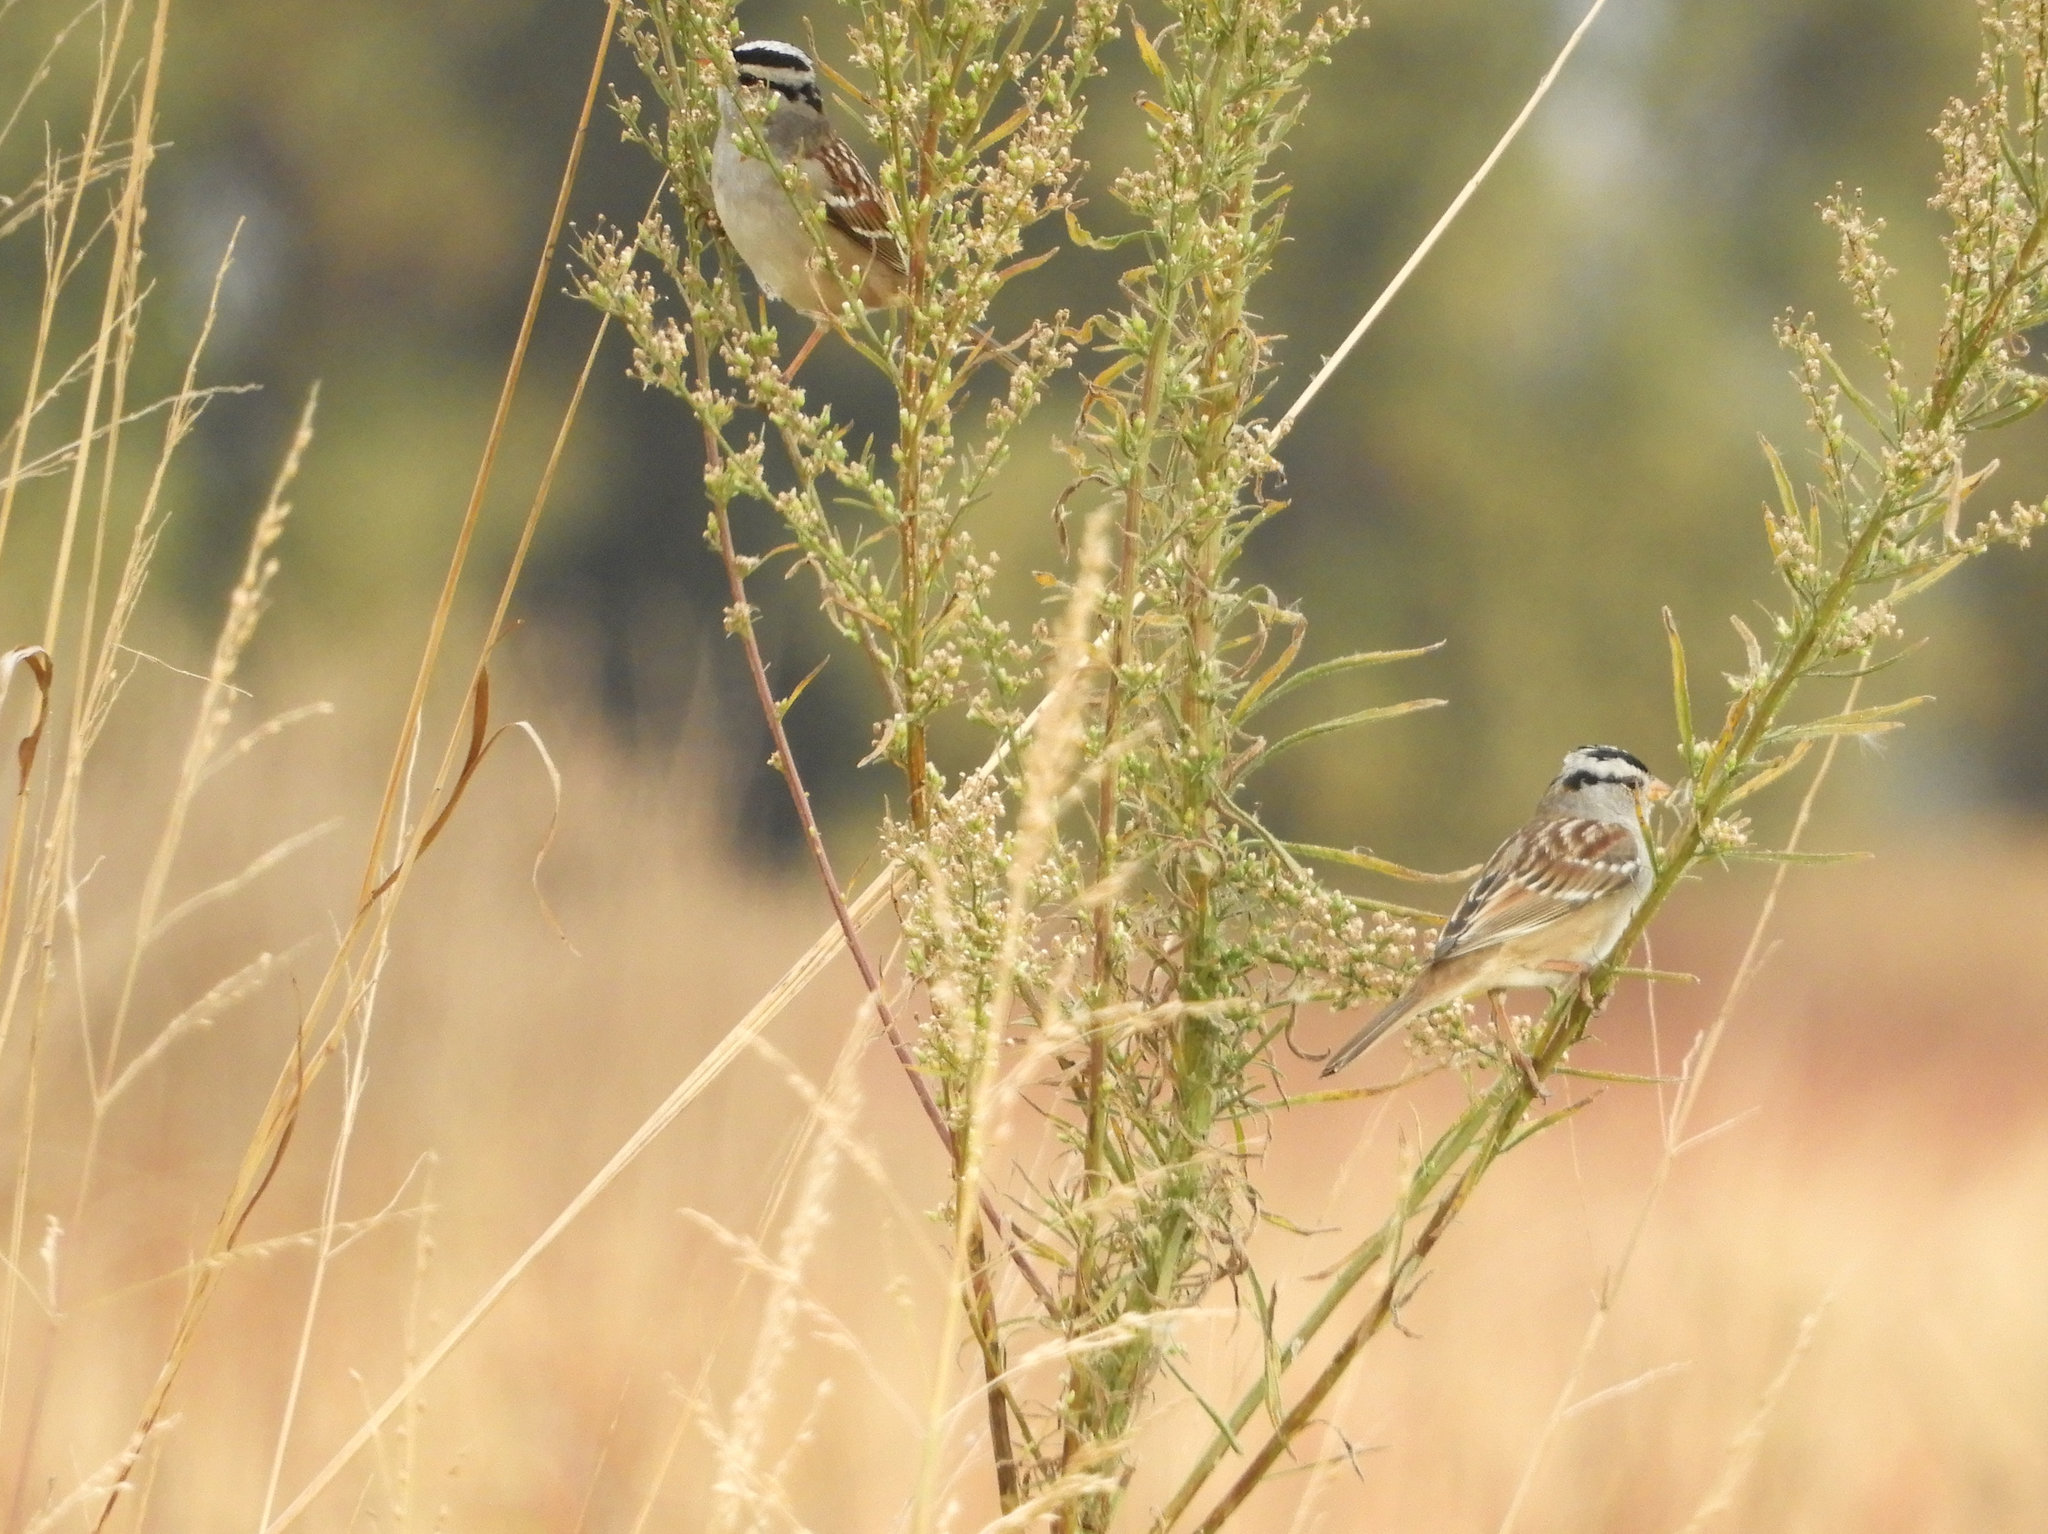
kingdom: Animalia
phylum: Chordata
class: Aves
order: Passeriformes
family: Passerellidae
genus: Zonotrichia
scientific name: Zonotrichia leucophrys
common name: White-crowned sparrow
